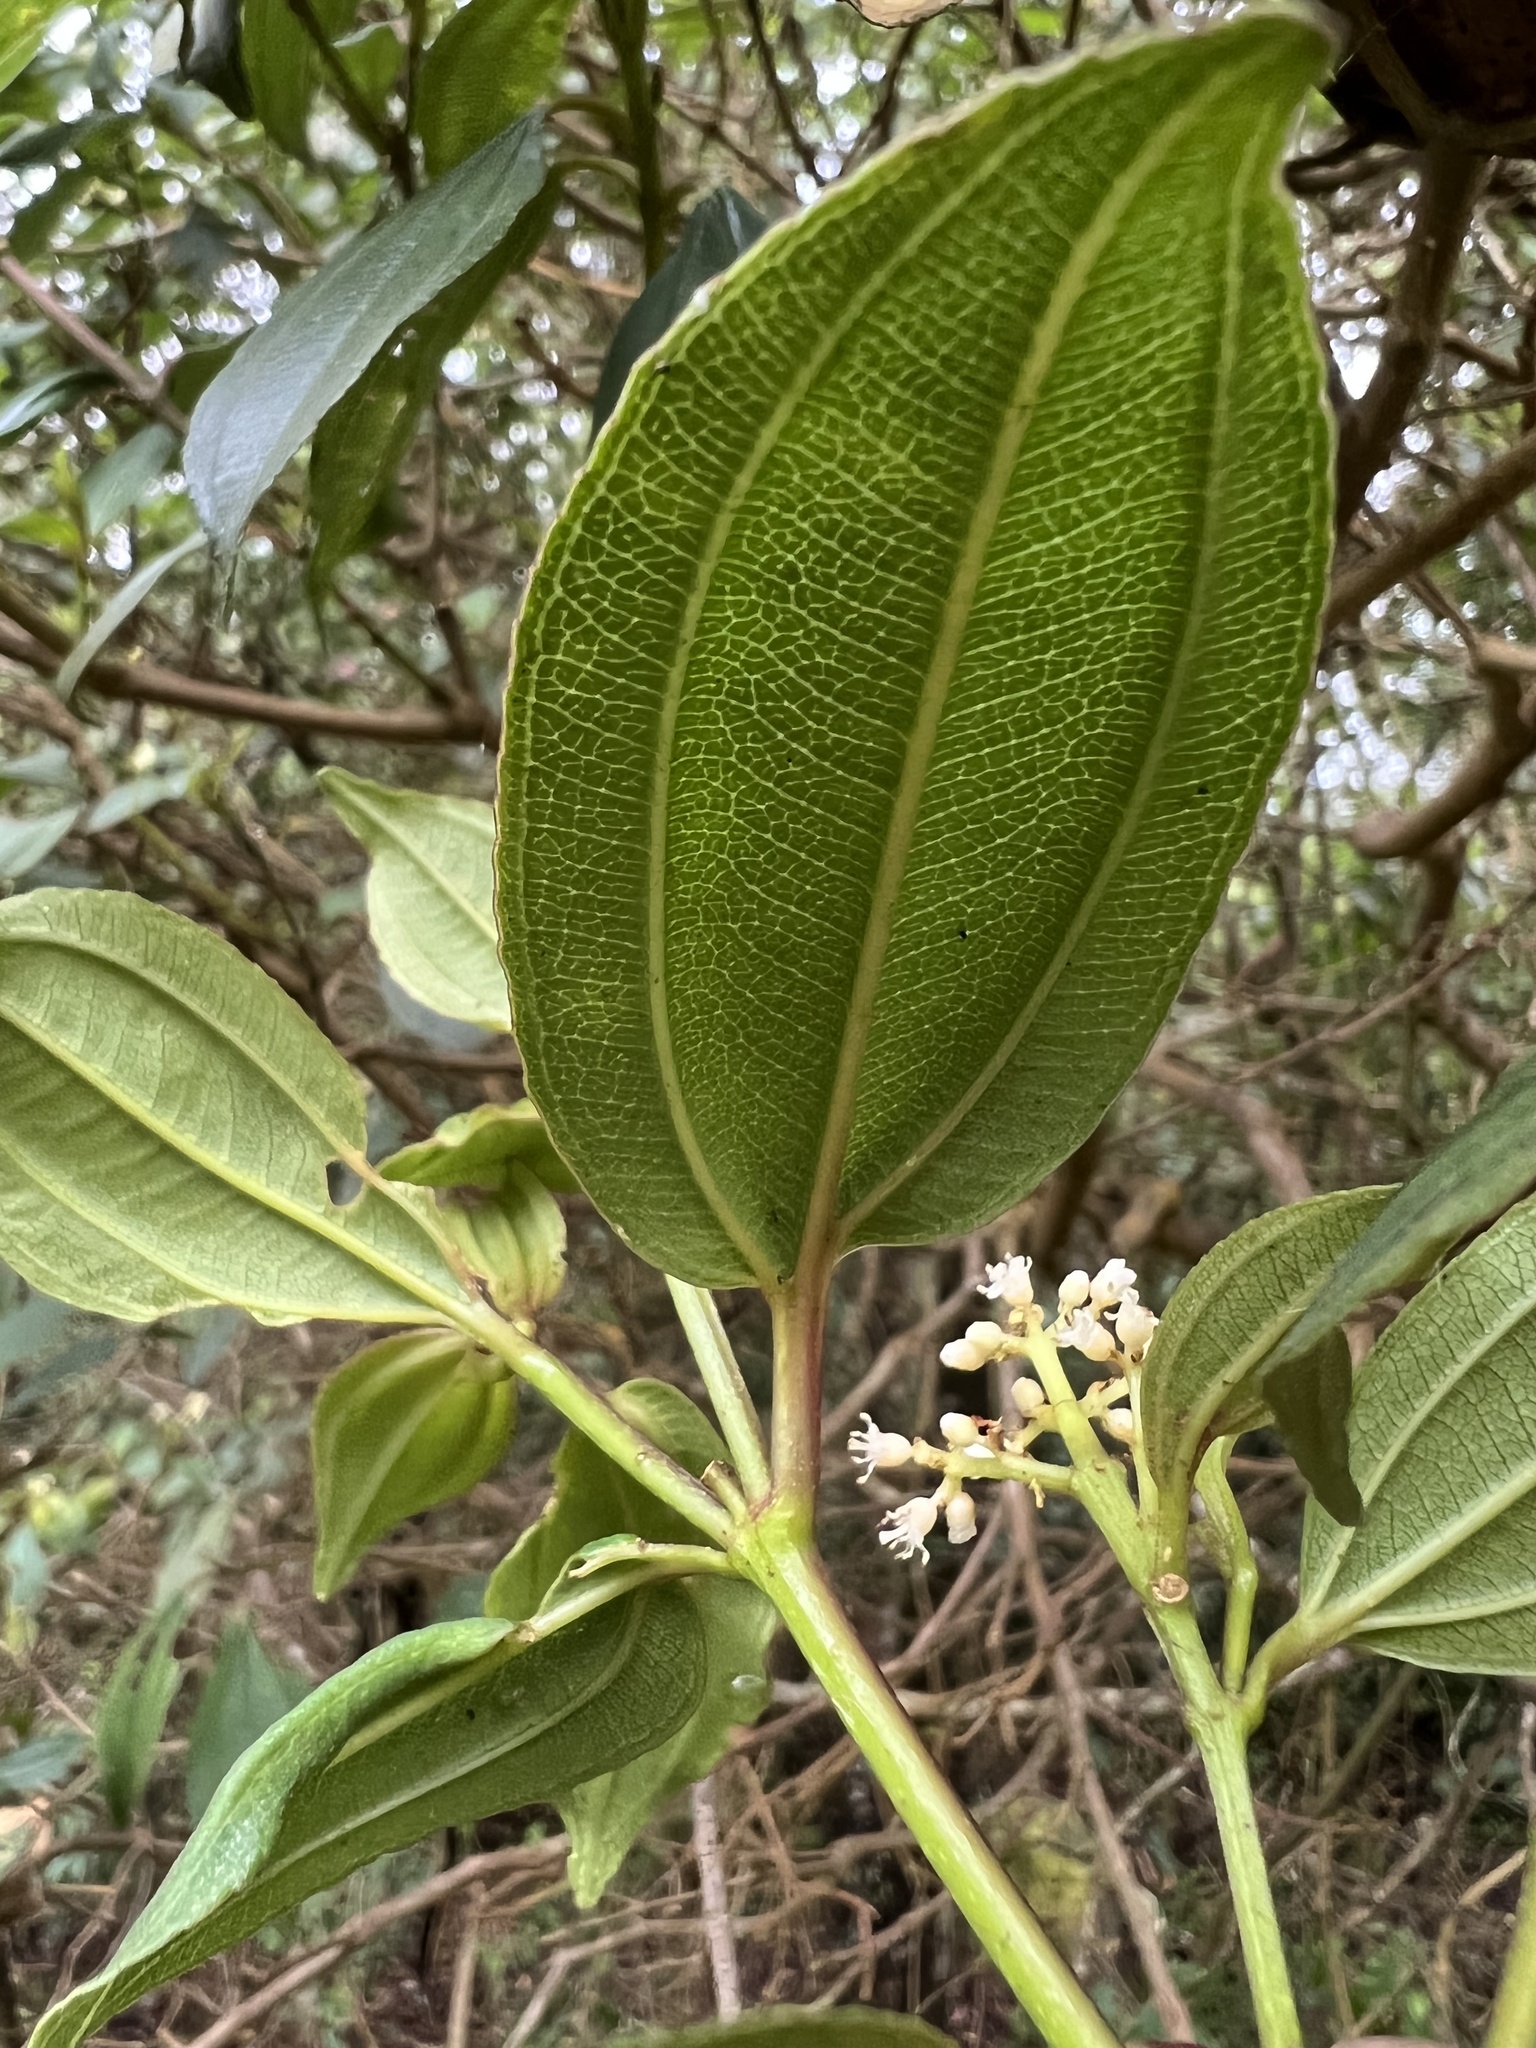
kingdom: Plantae
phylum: Tracheophyta
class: Magnoliopsida
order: Myrtales
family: Melastomataceae
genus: Miconia
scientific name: Miconia theizans
